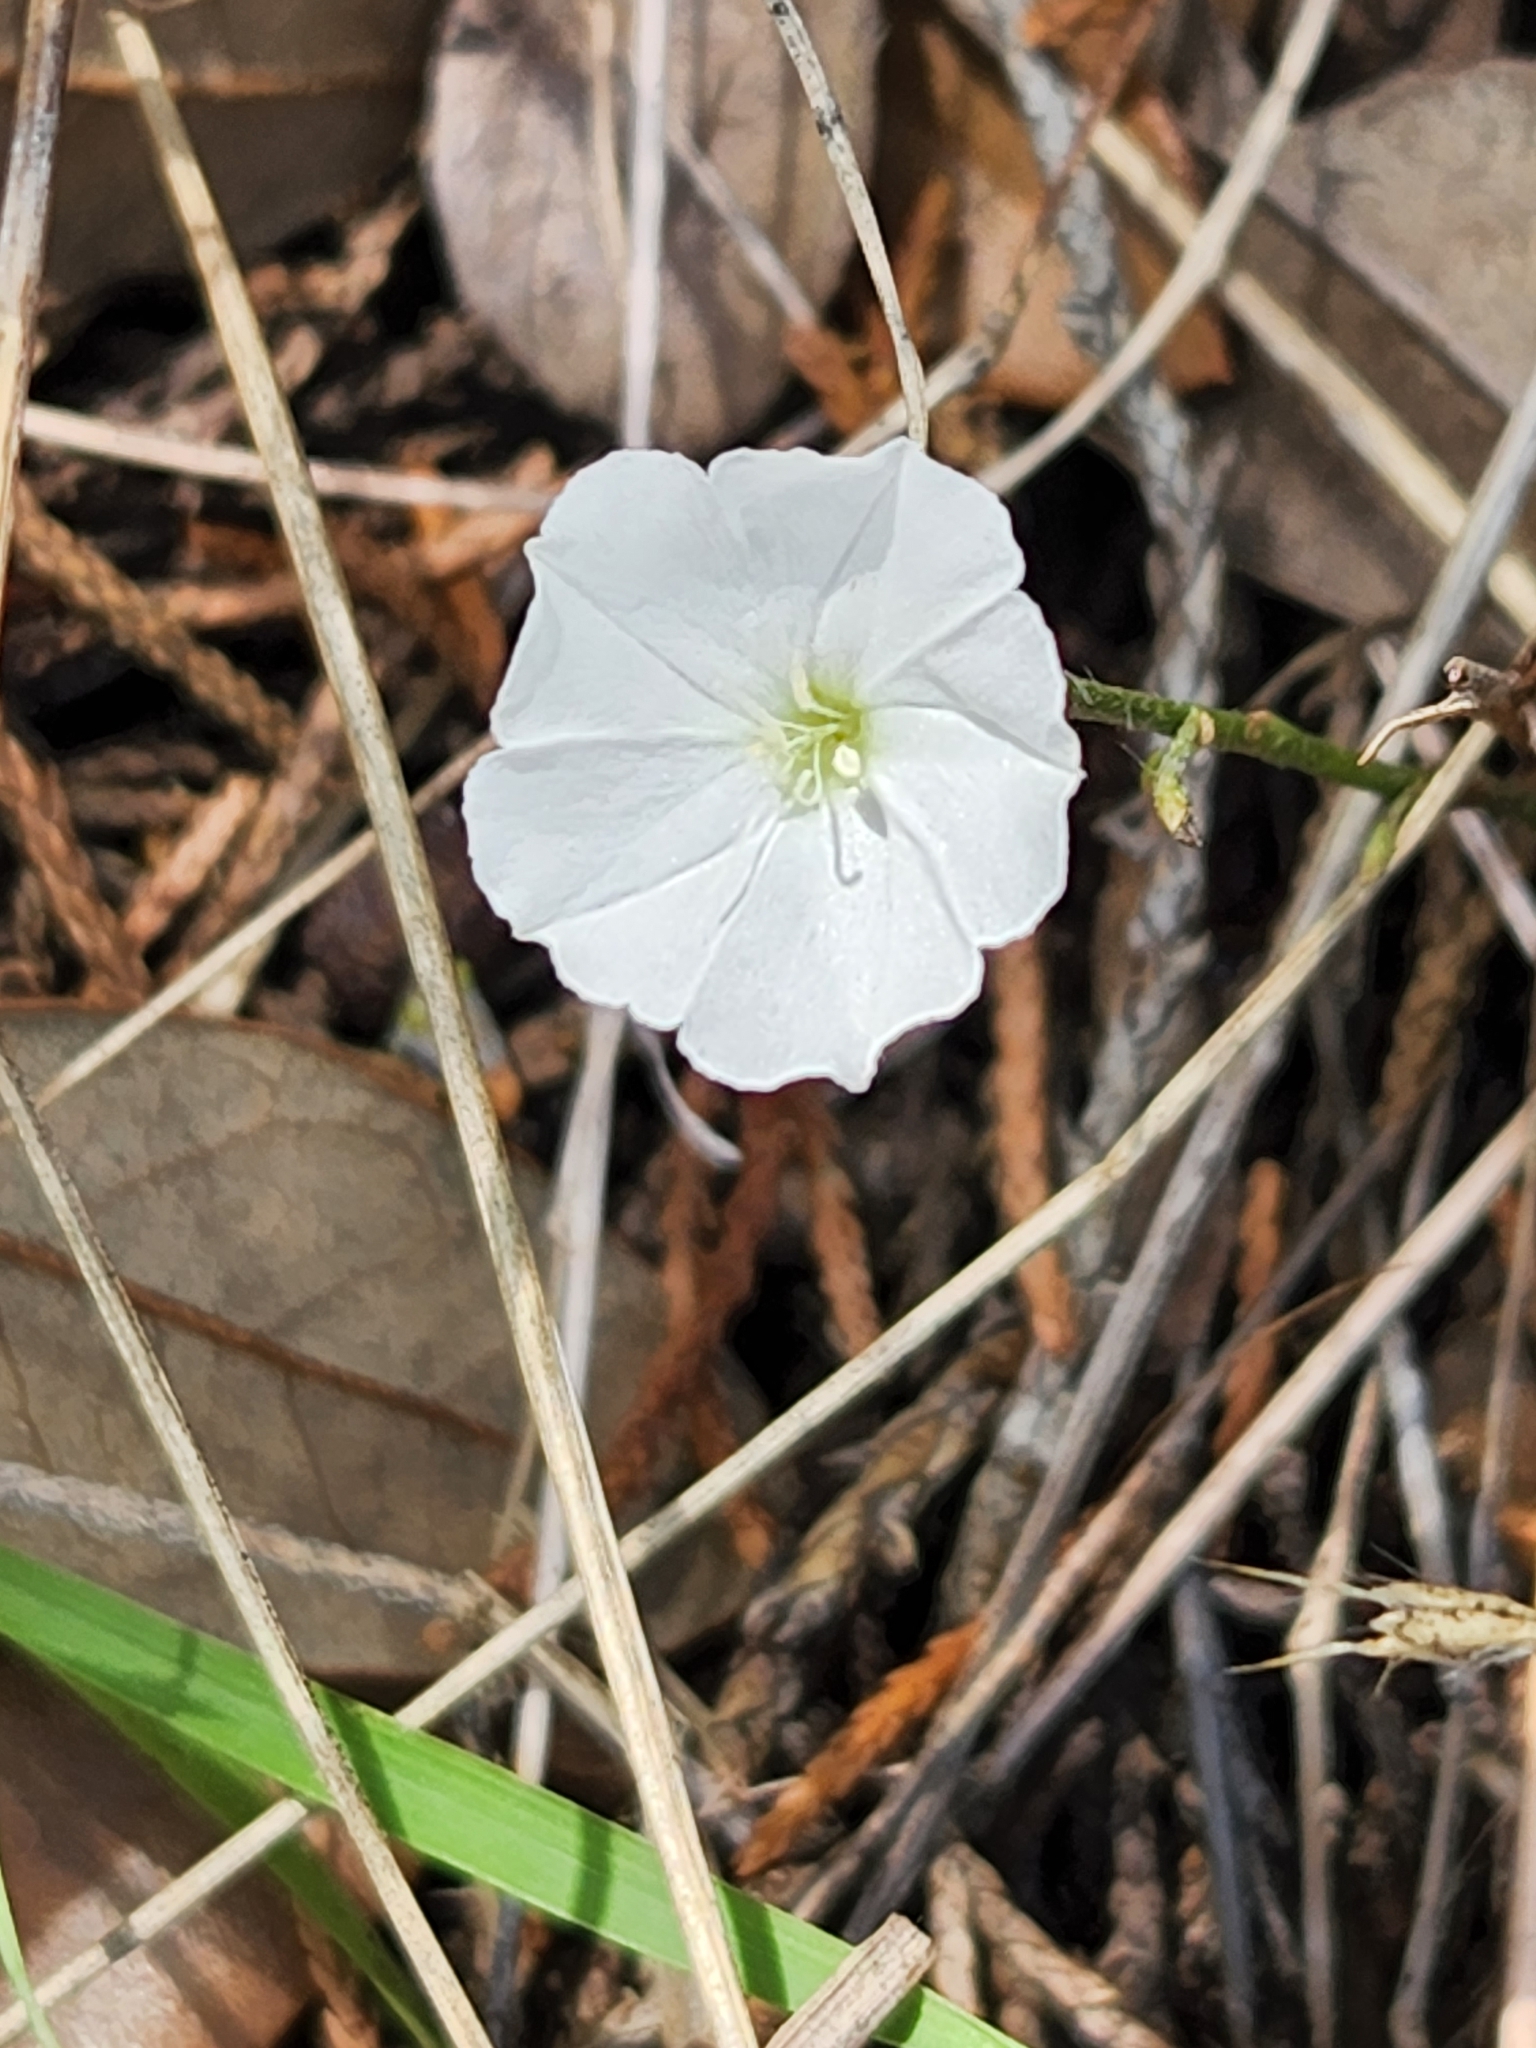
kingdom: Plantae
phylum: Tracheophyta
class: Magnoliopsida
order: Solanales
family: Convolvulaceae
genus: Evolvulus
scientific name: Evolvulus sericeus
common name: Blue dots
